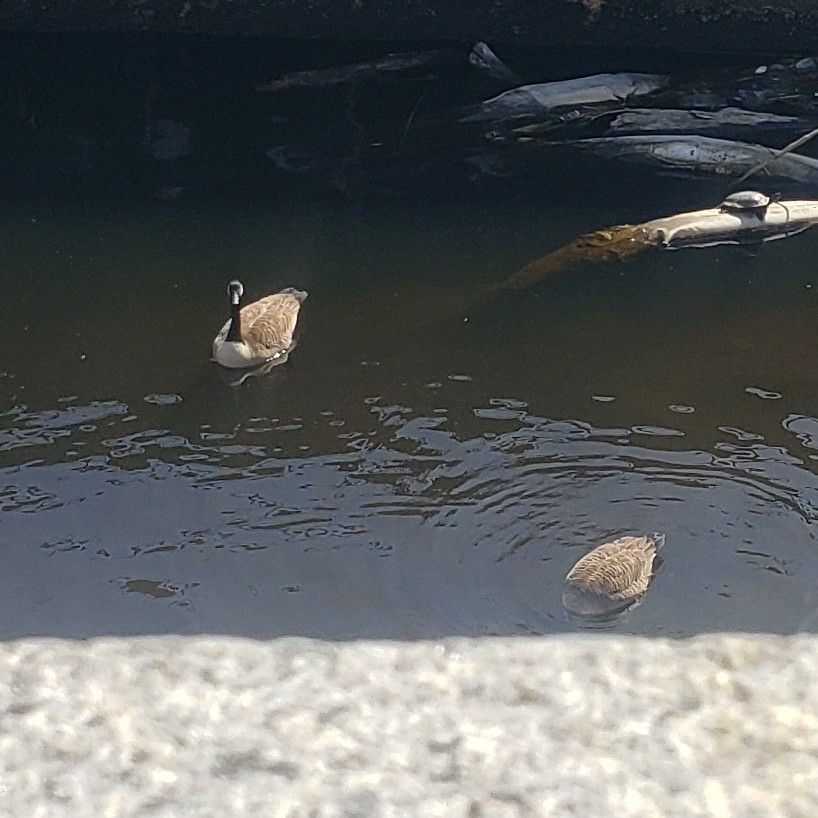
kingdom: Animalia
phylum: Chordata
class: Aves
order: Anseriformes
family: Anatidae
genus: Branta
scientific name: Branta canadensis
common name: Canada goose
